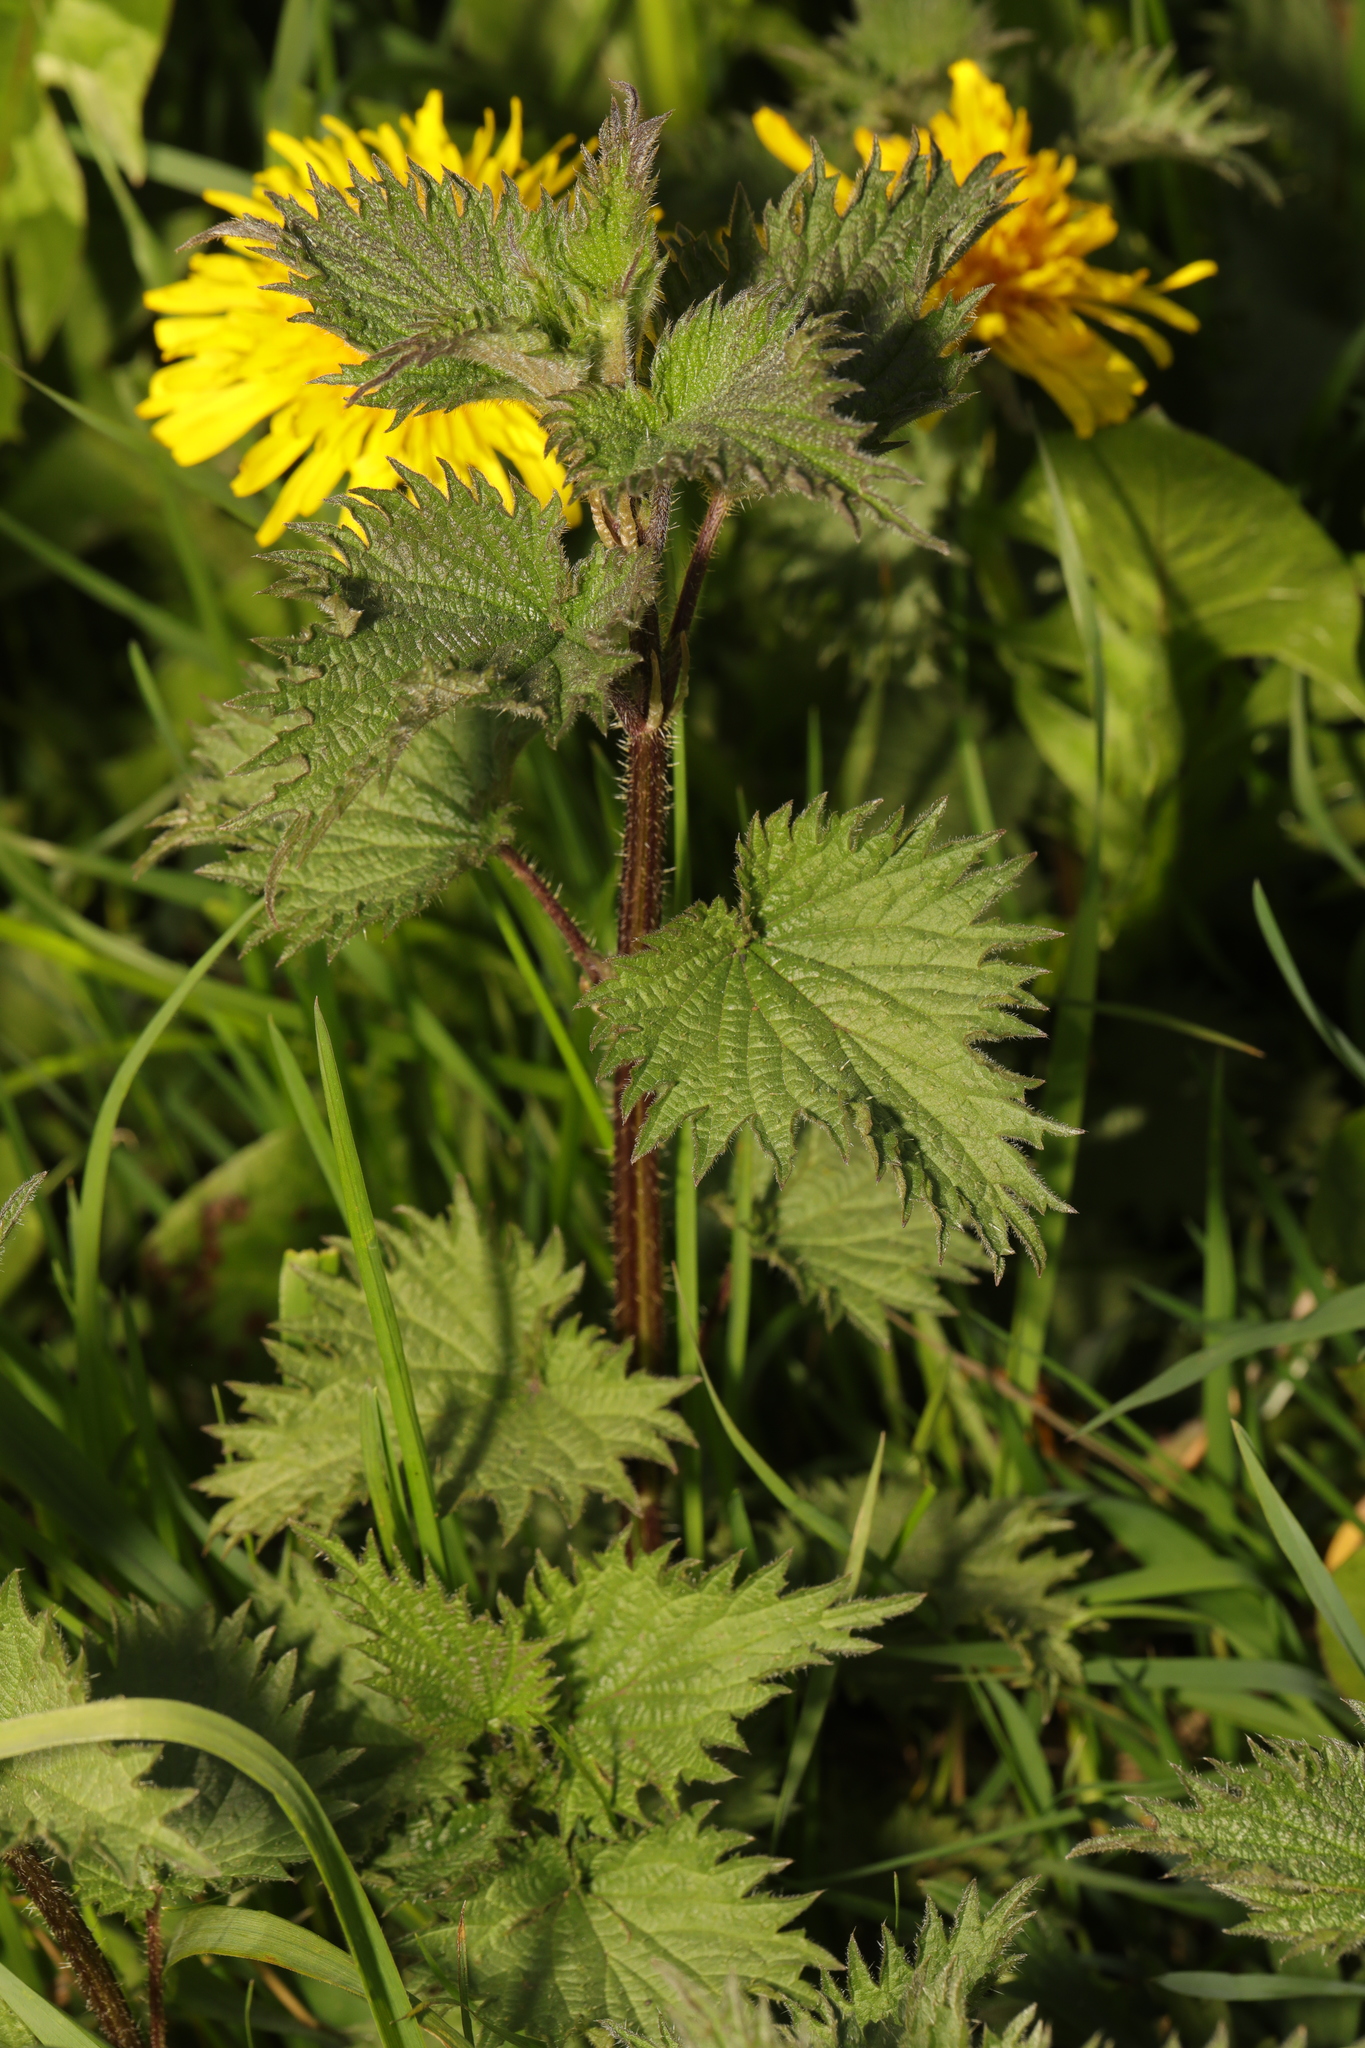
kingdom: Plantae
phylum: Tracheophyta
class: Magnoliopsida
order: Rosales
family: Urticaceae
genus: Urtica
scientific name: Urtica dioica
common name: Common nettle
